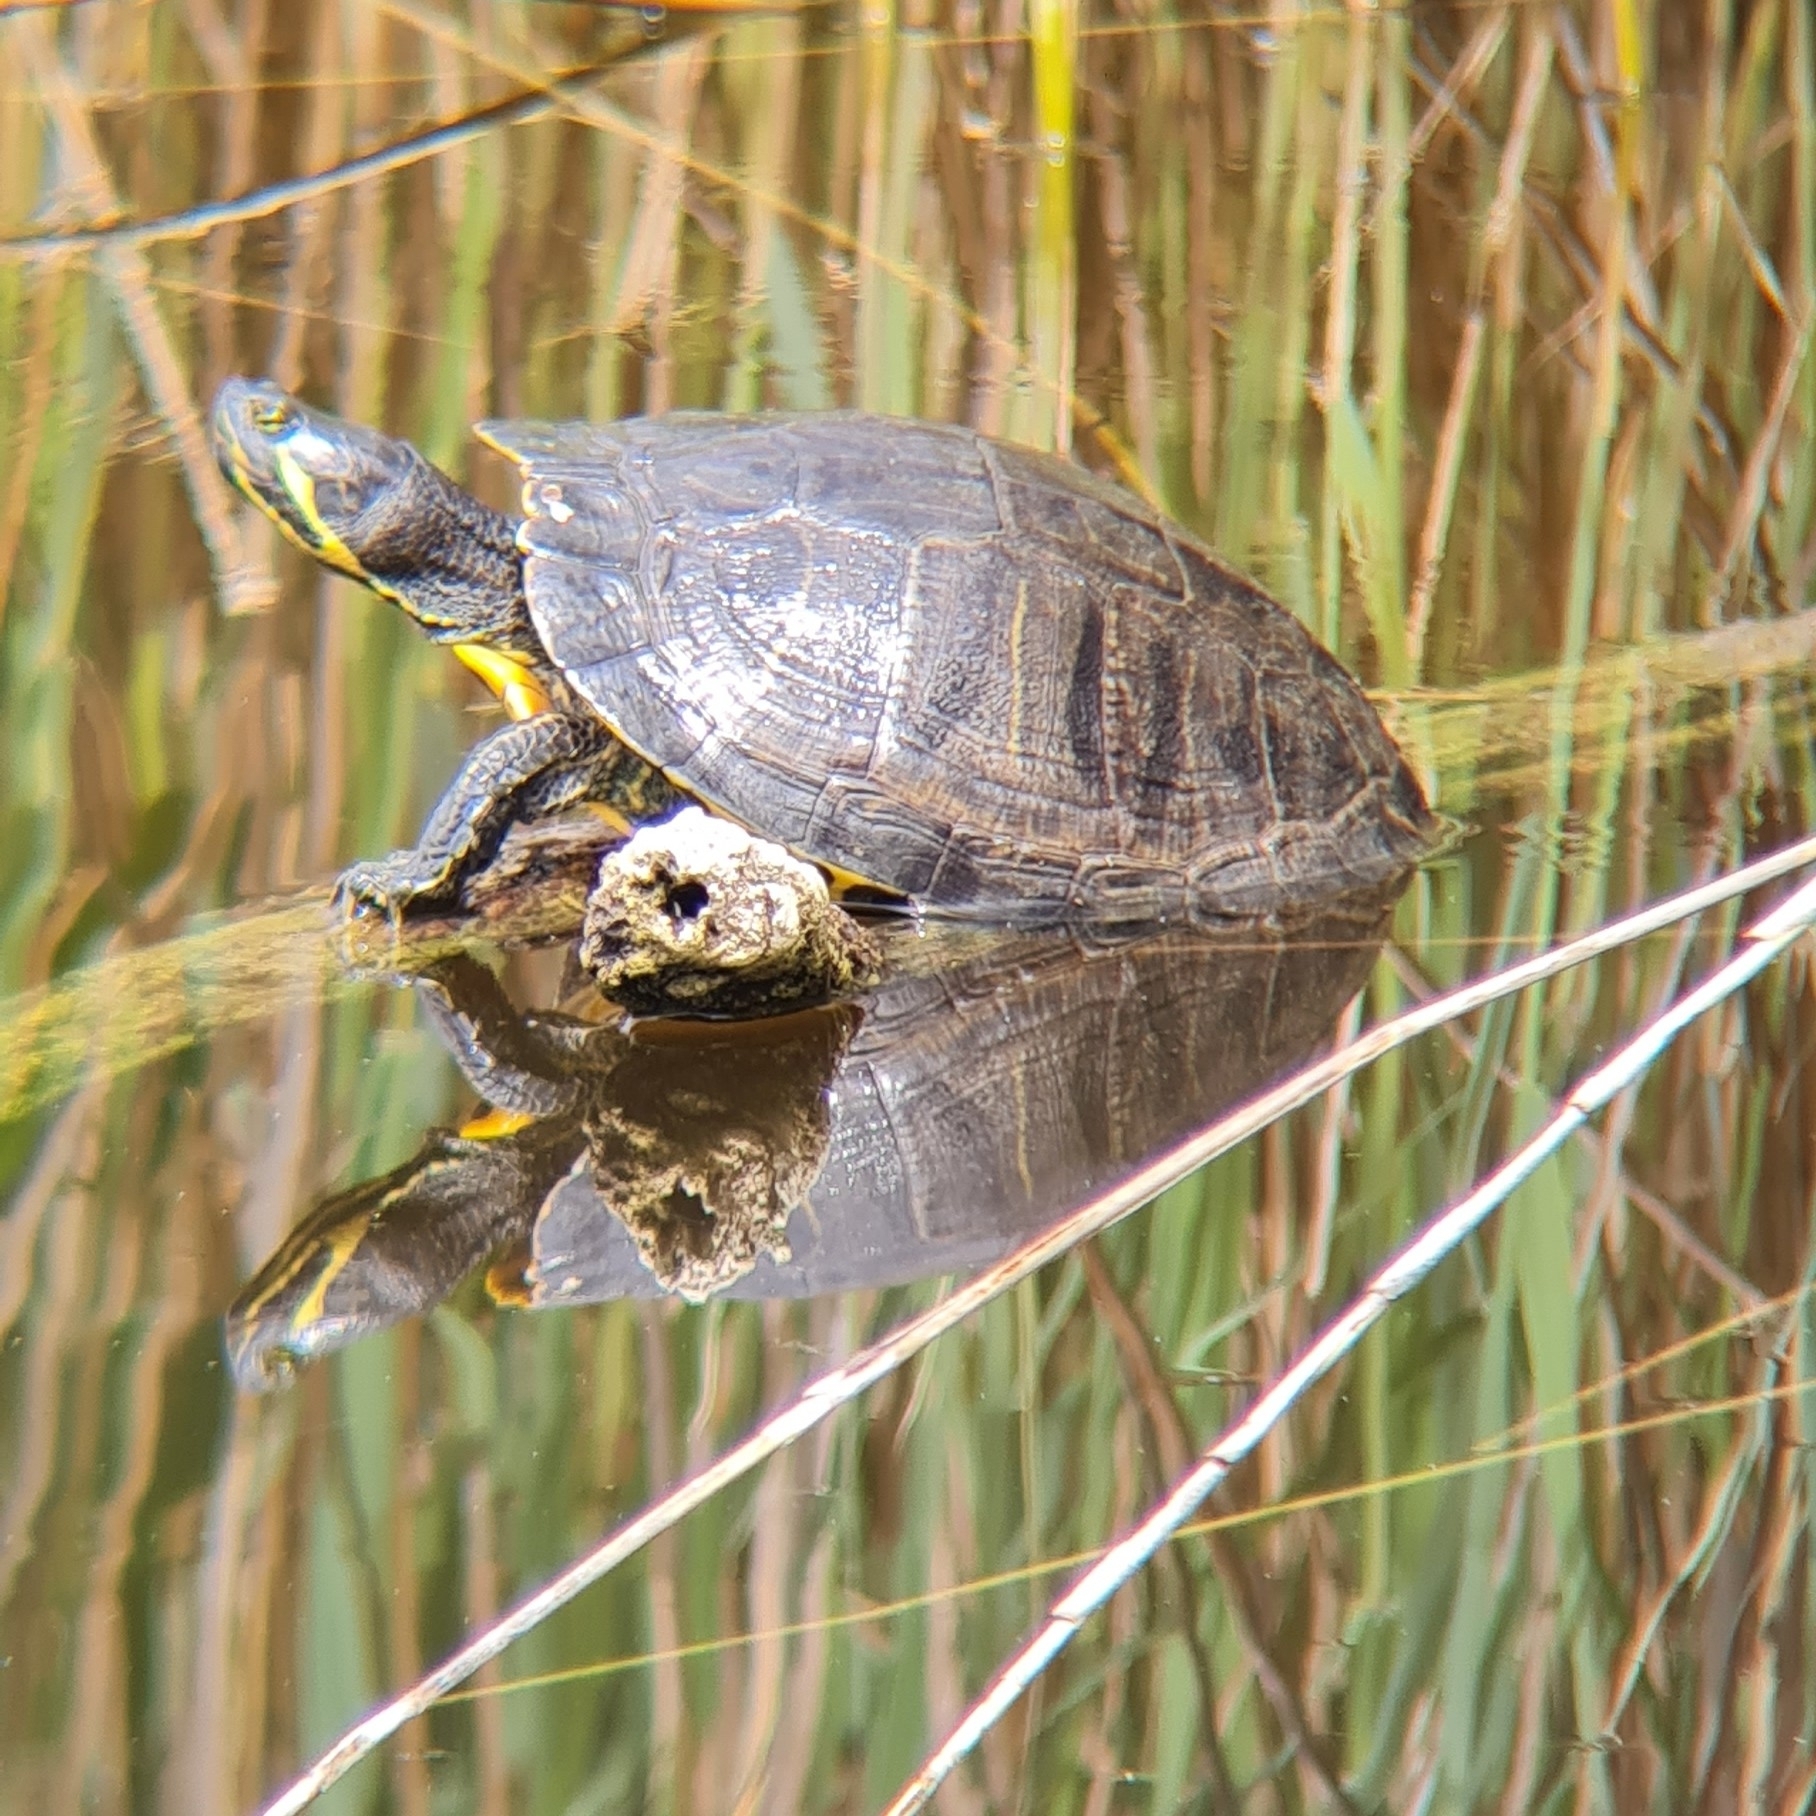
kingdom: Animalia
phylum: Chordata
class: Testudines
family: Emydidae
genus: Trachemys
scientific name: Trachemys scripta
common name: Slider
